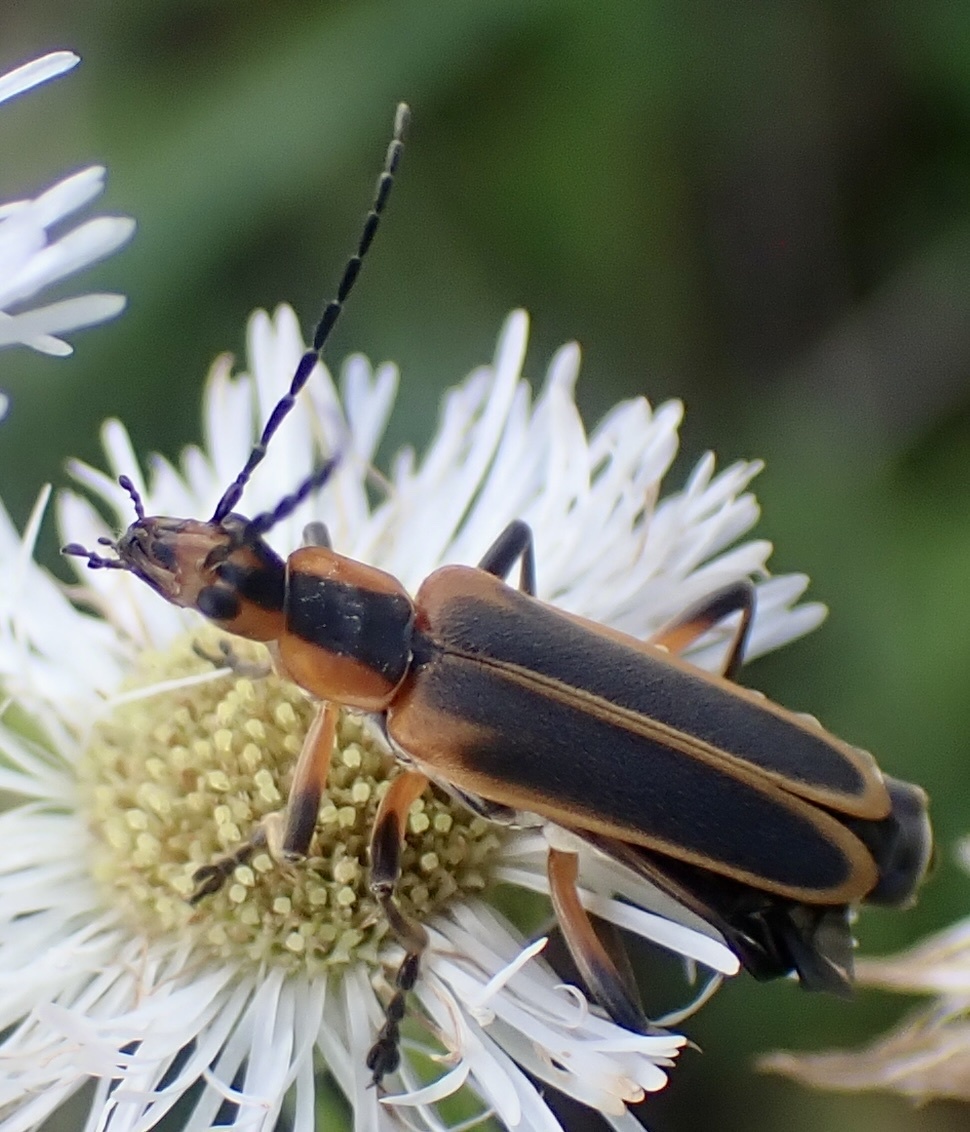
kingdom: Animalia
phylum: Arthropoda
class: Insecta
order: Coleoptera
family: Cantharidae
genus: Chauliognathus
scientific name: Chauliognathus marginatus
